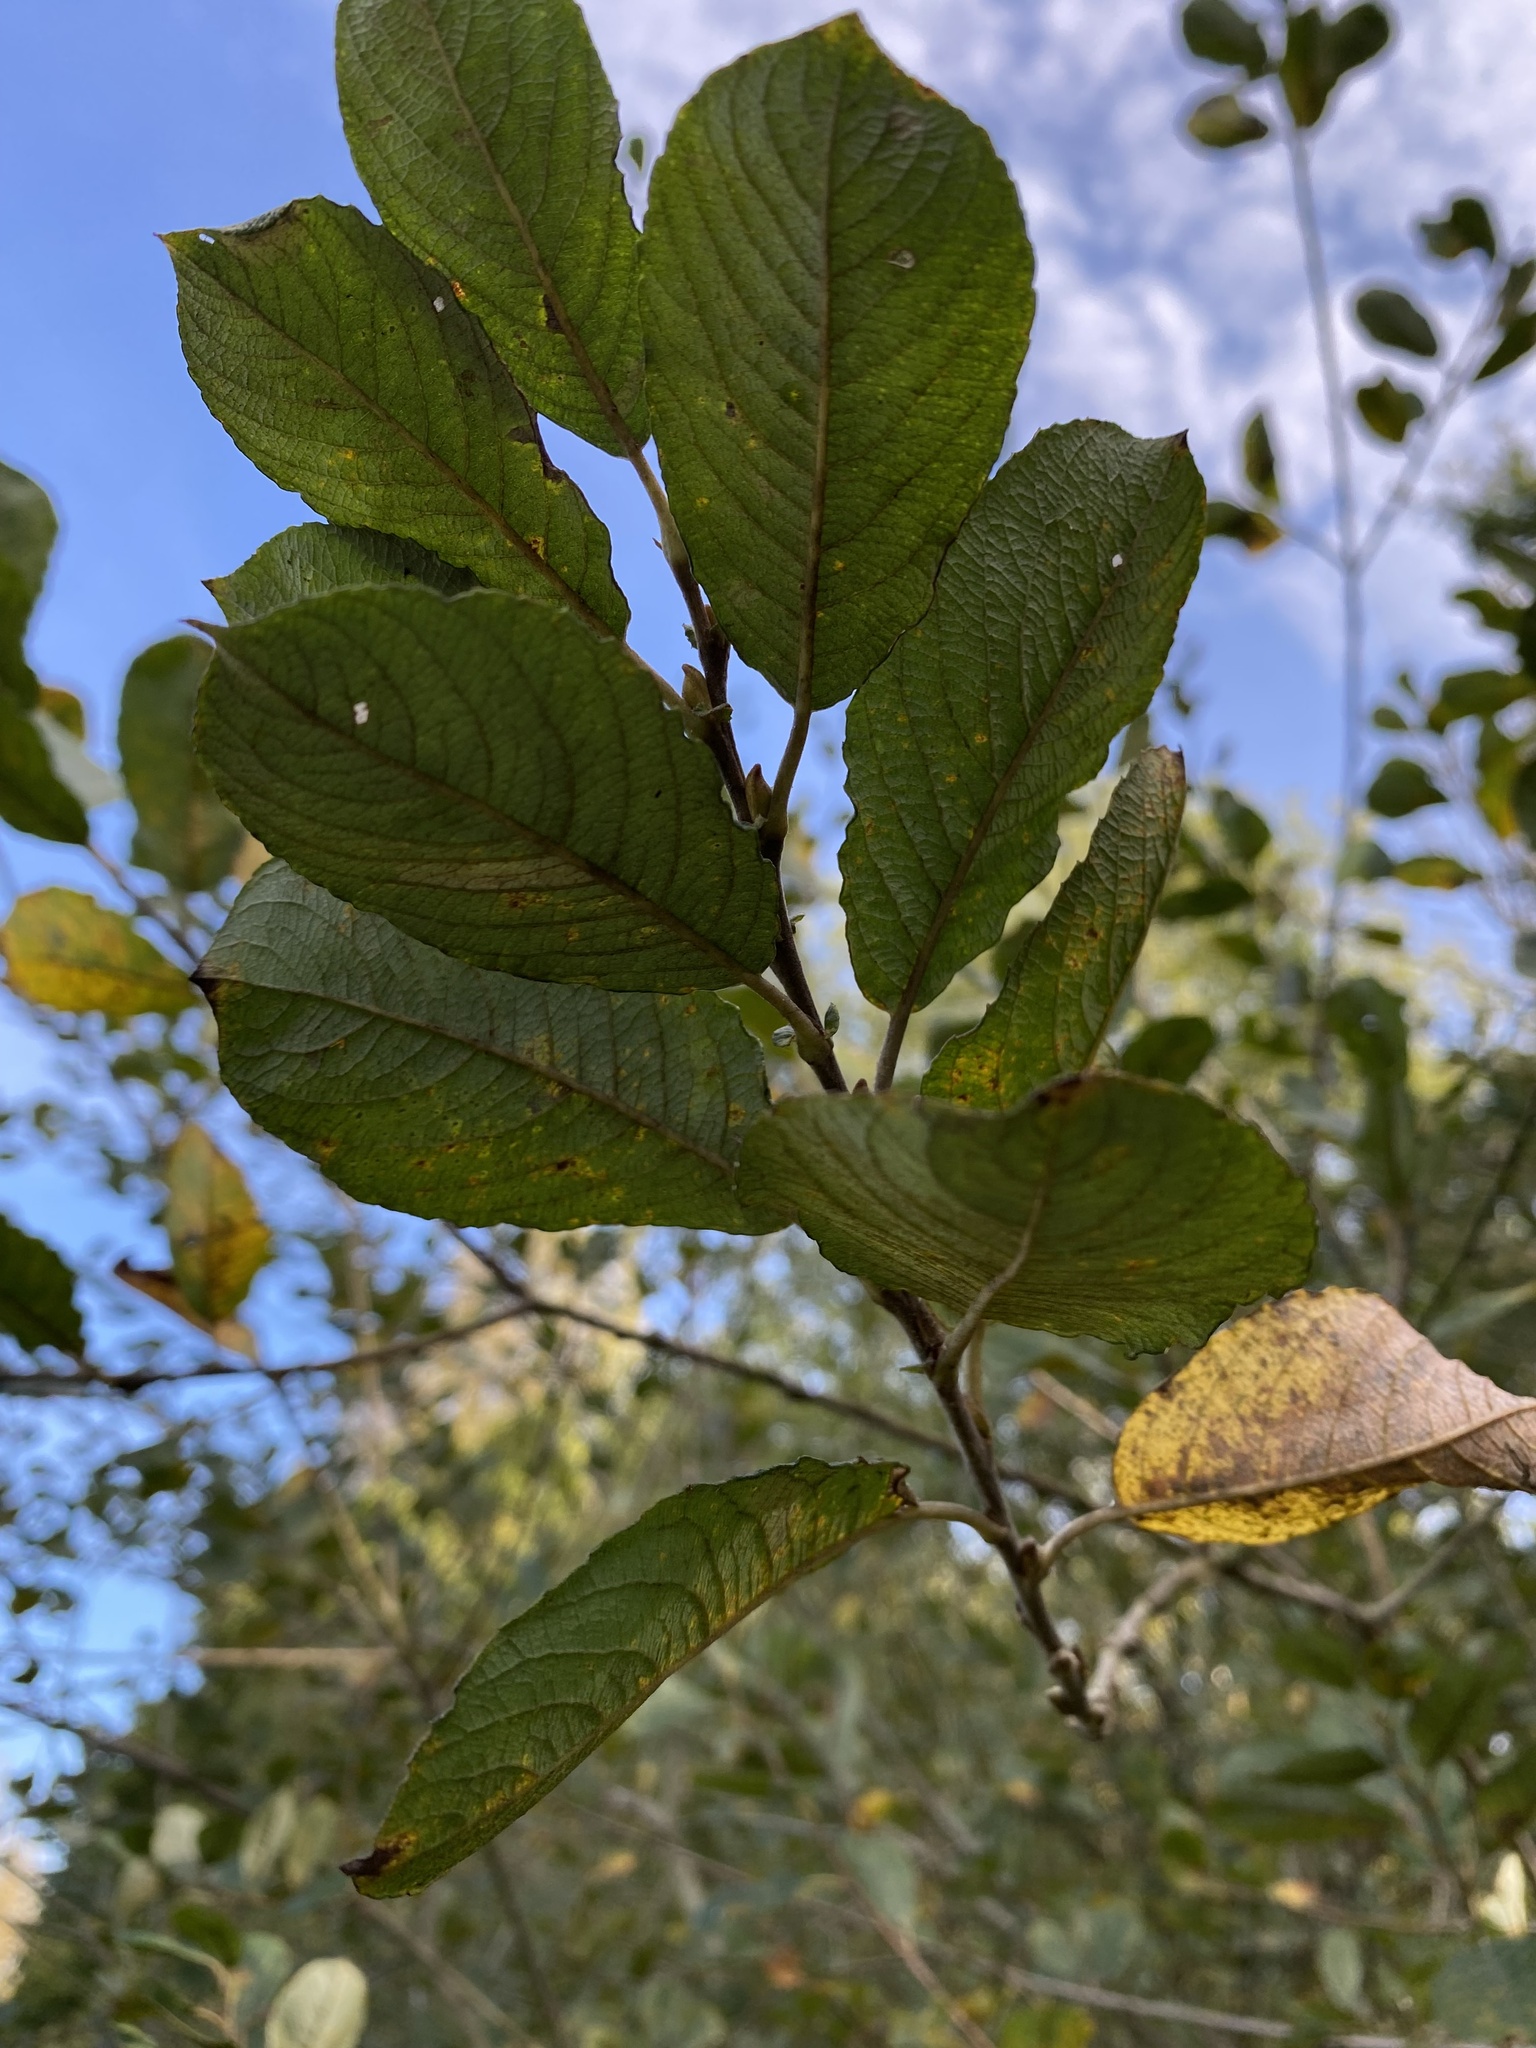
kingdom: Plantae
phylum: Tracheophyta
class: Magnoliopsida
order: Malpighiales
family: Salicaceae
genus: Salix
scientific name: Salix cinerea
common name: Common sallow
